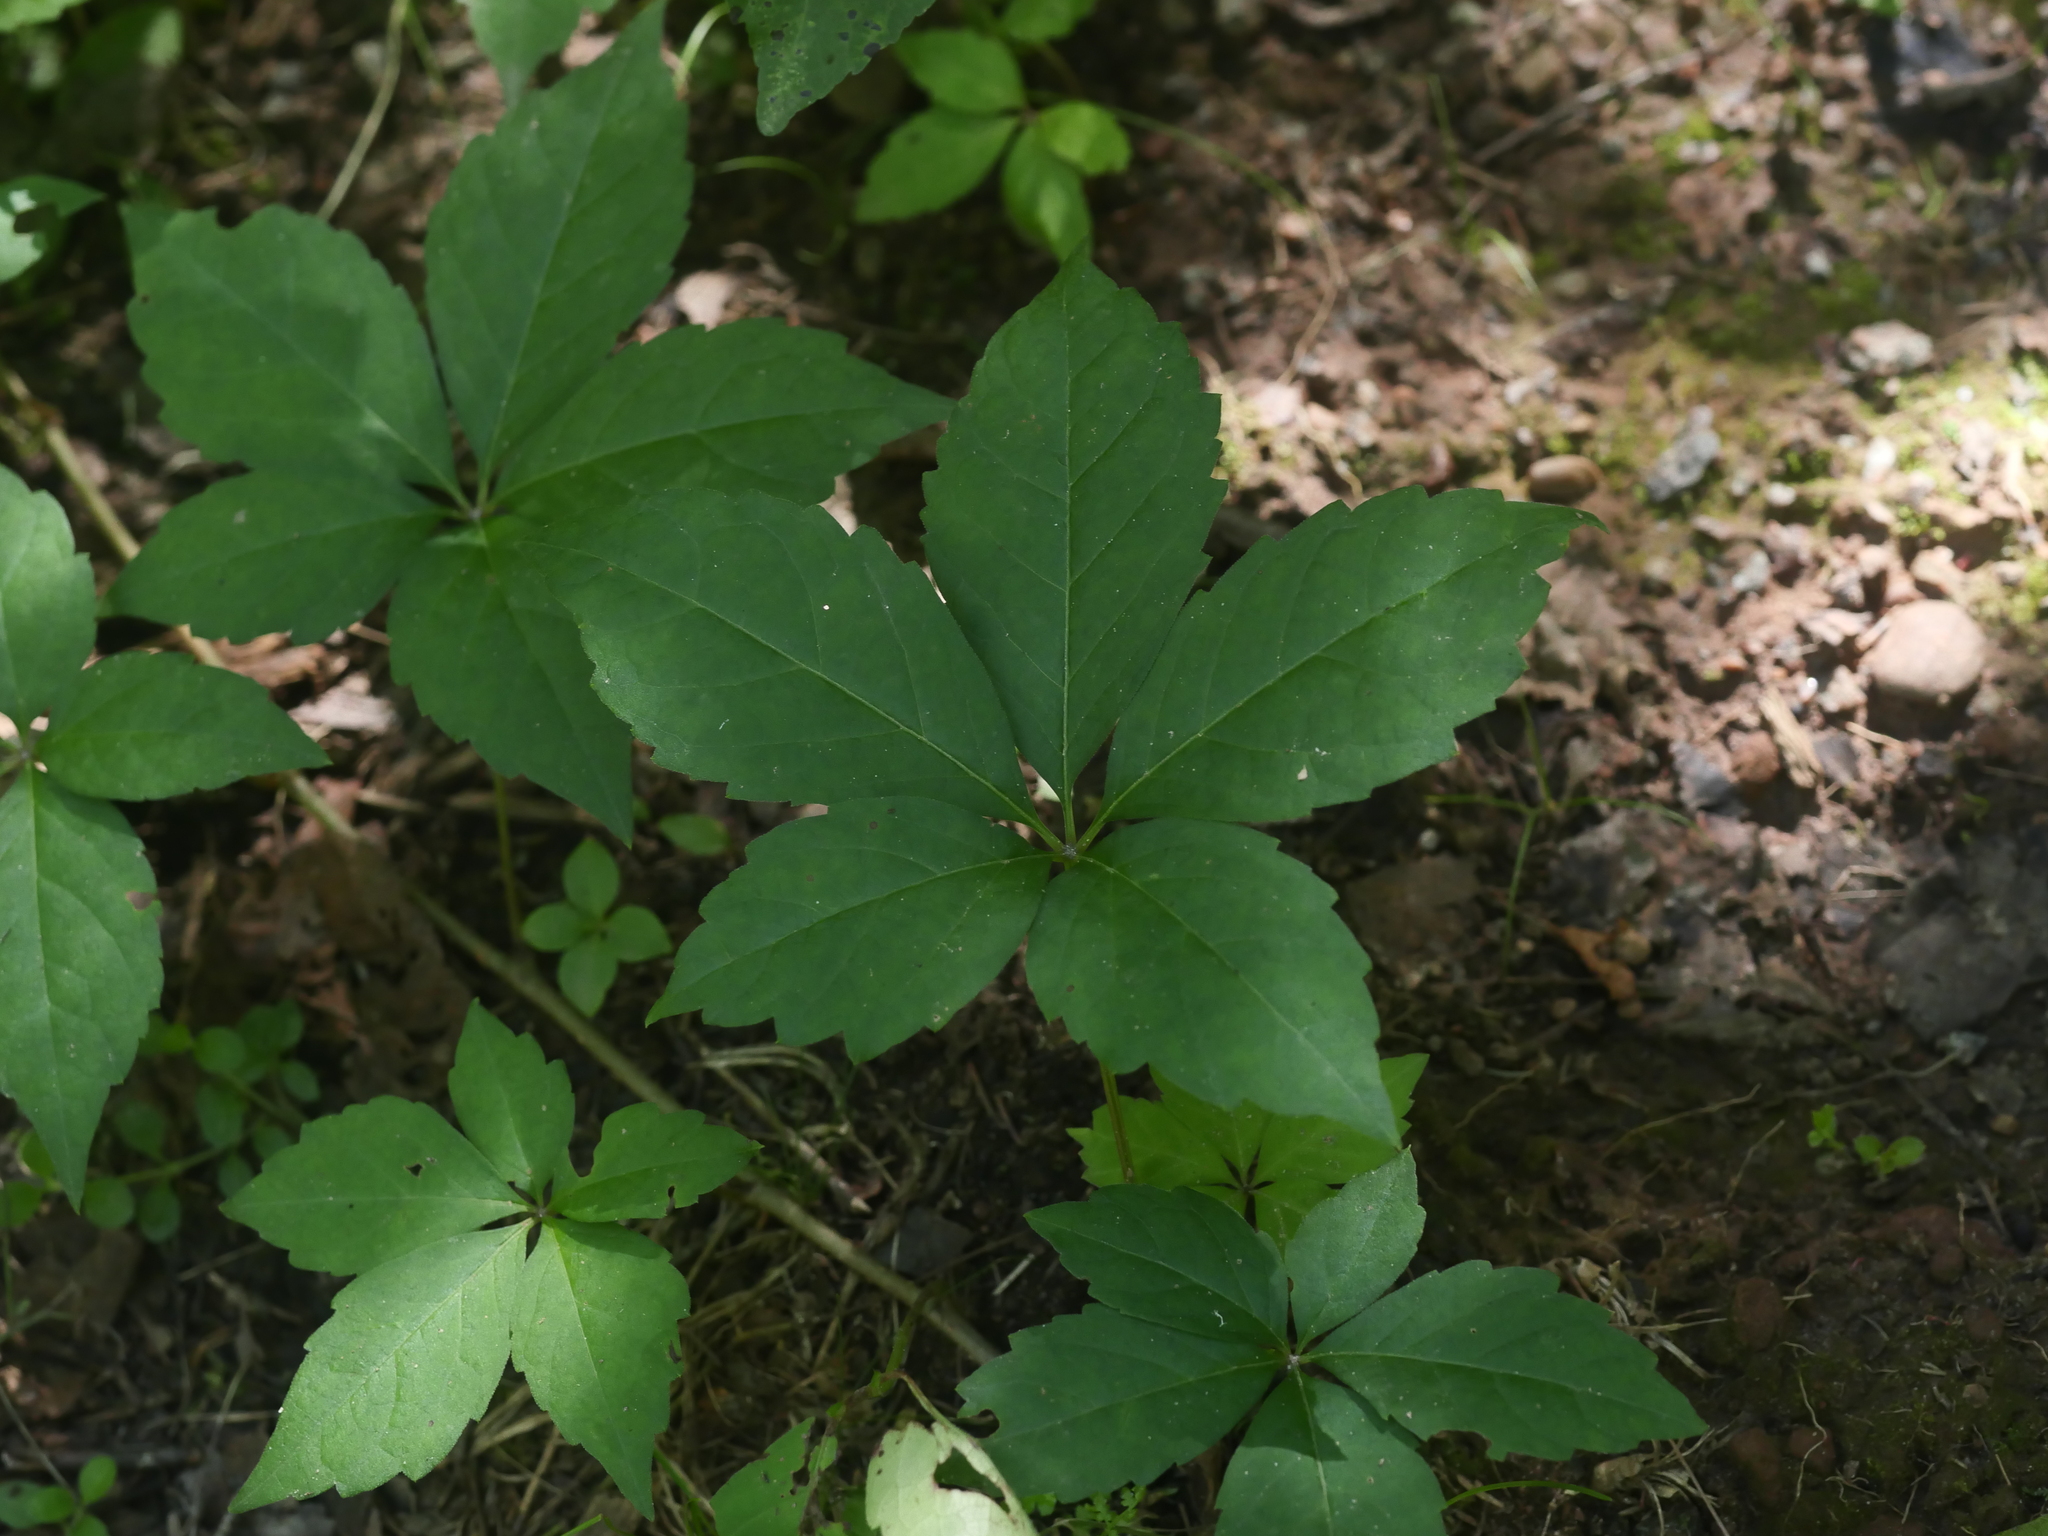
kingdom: Plantae
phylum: Tracheophyta
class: Magnoliopsida
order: Vitales
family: Vitaceae
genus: Parthenocissus
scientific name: Parthenocissus quinquefolia
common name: Virginia-creeper
